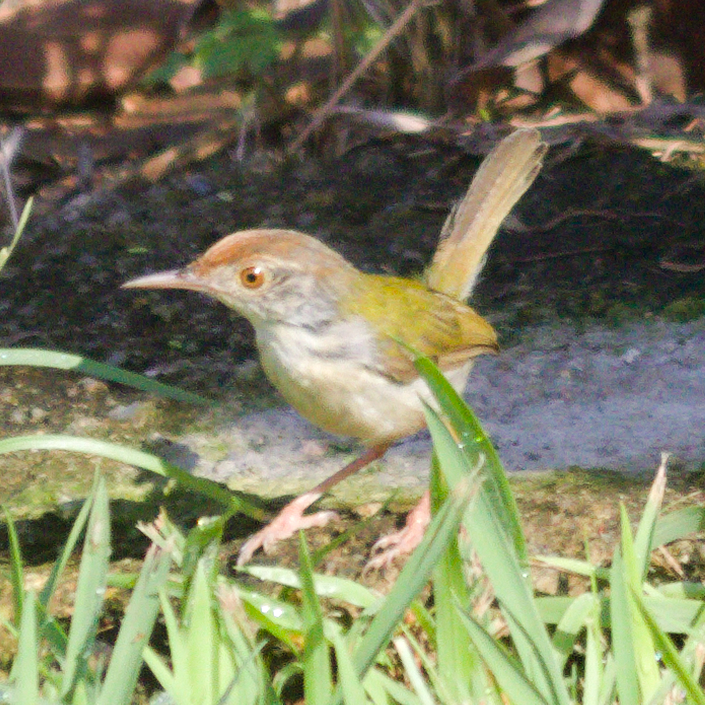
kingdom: Animalia
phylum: Chordata
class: Aves
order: Passeriformes
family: Cisticolidae
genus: Orthotomus
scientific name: Orthotomus sutorius
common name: Common tailorbird
